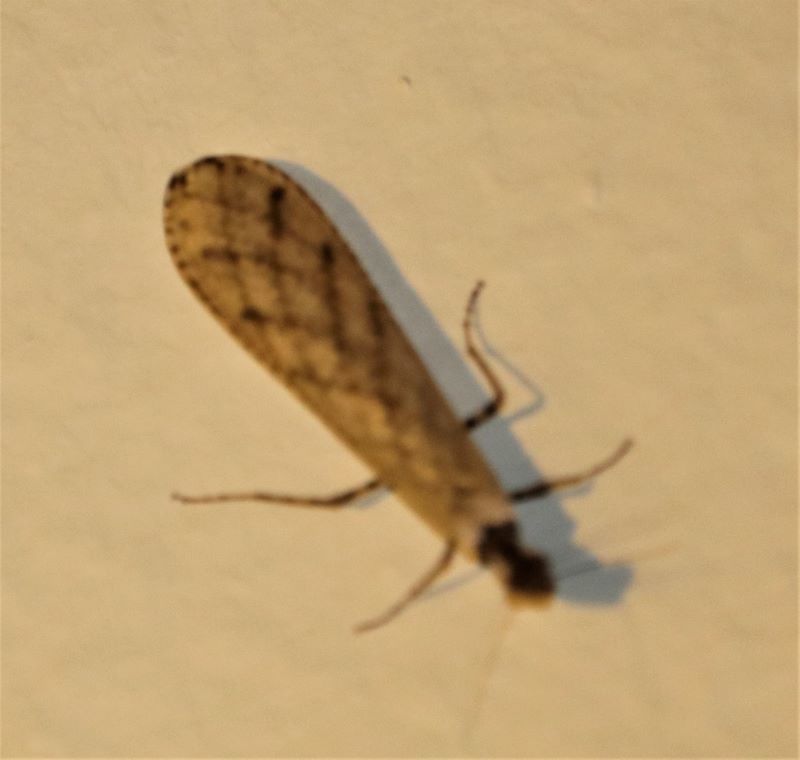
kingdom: Animalia
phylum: Arthropoda
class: Insecta
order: Mantodea
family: Hymenopodidae
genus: Oxypilus
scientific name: Oxypilus capensis
